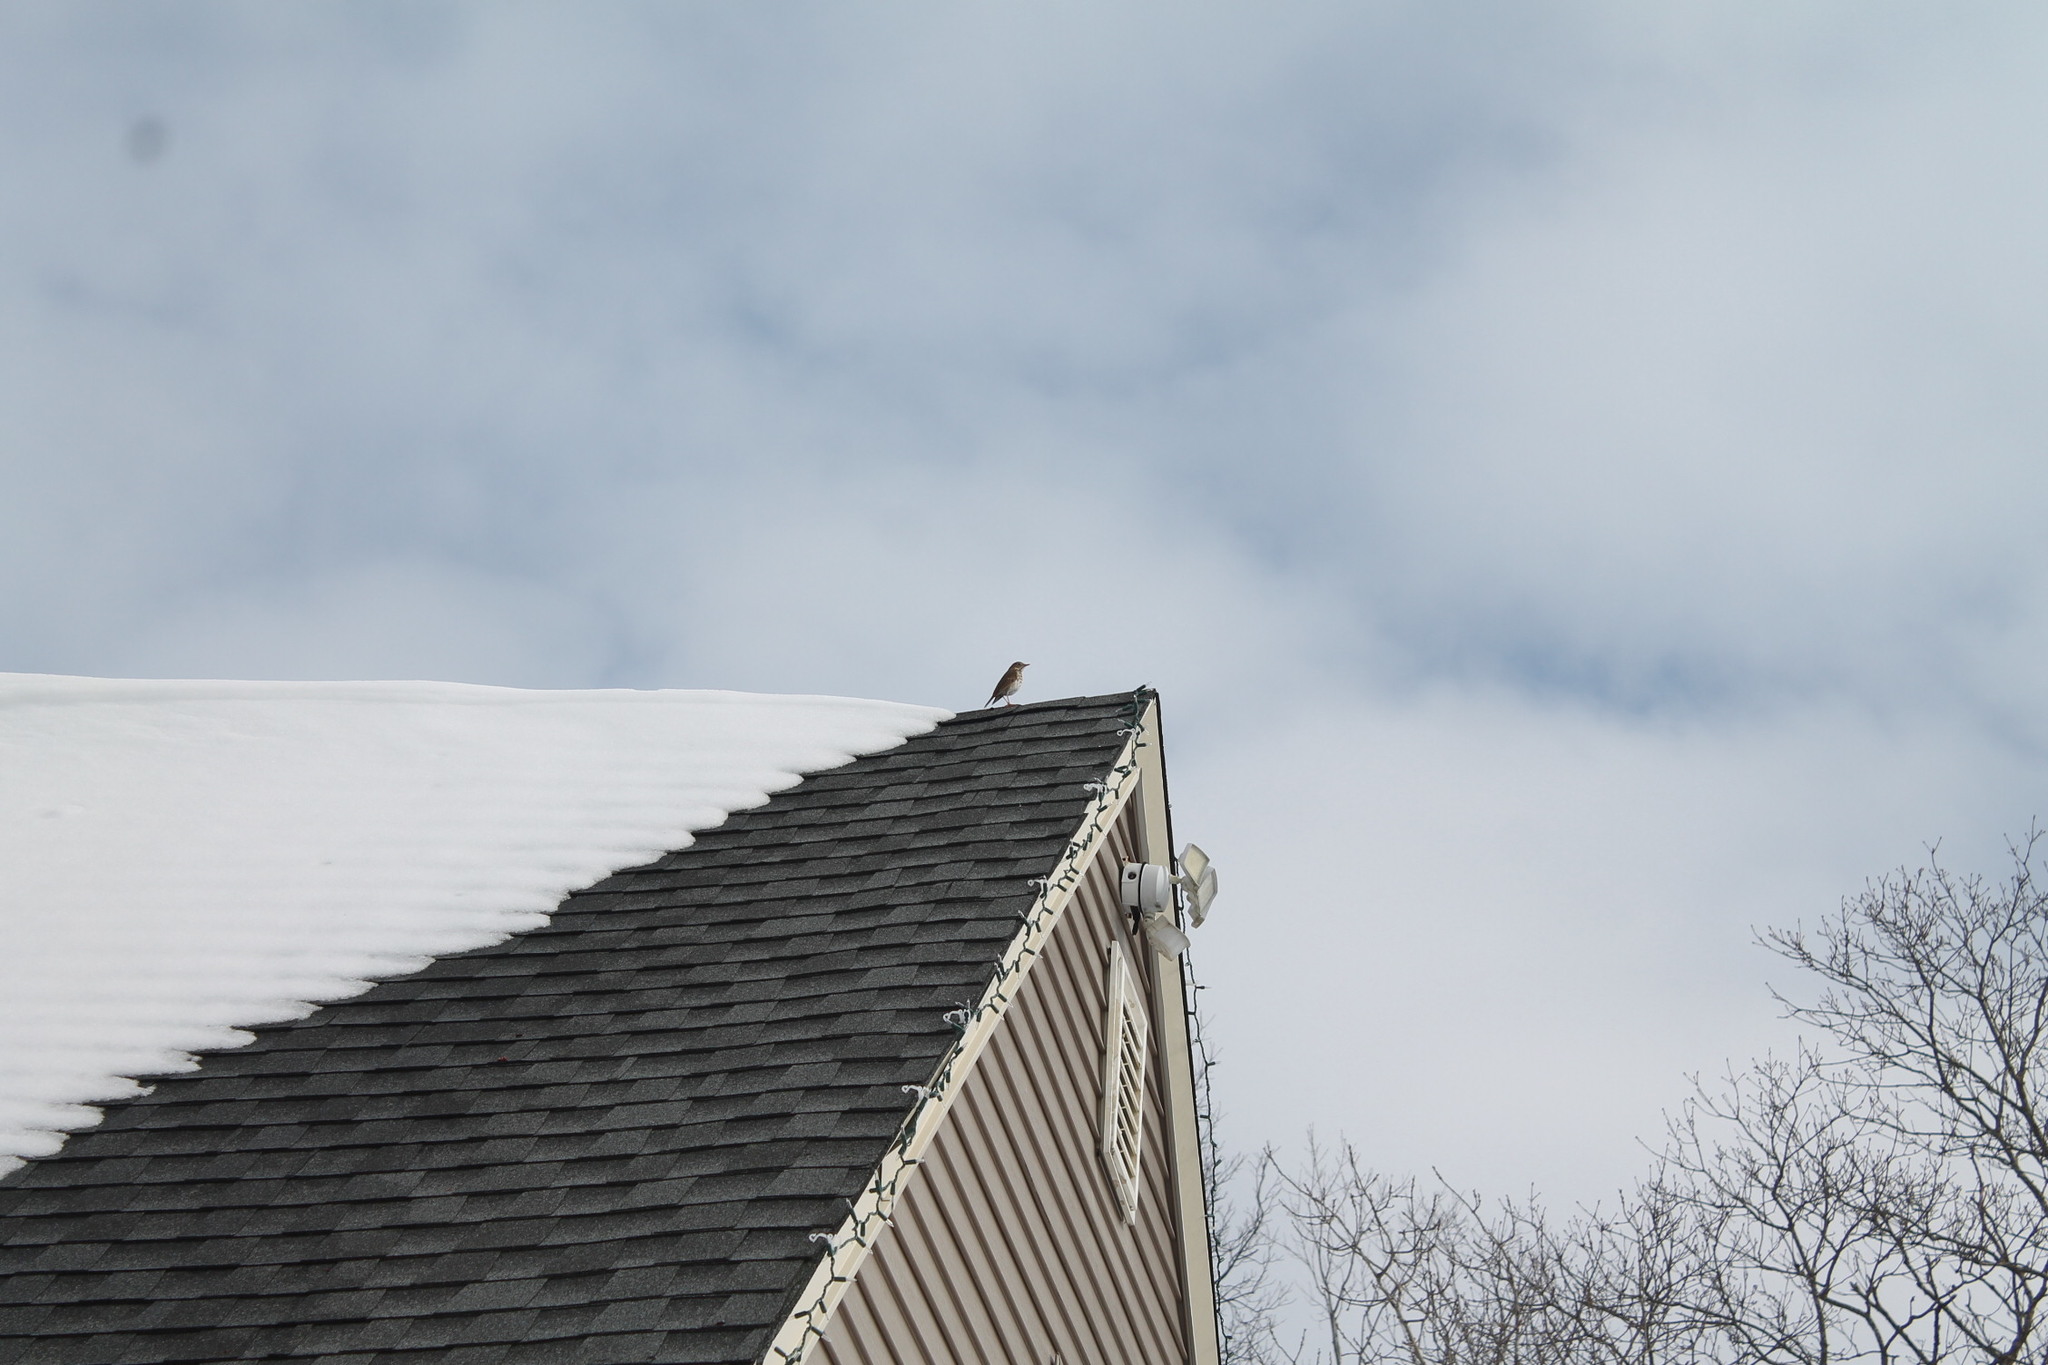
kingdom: Animalia
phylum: Chordata
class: Aves
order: Passeriformes
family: Turdidae
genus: Catharus
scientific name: Catharus guttatus
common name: Hermit thrush
